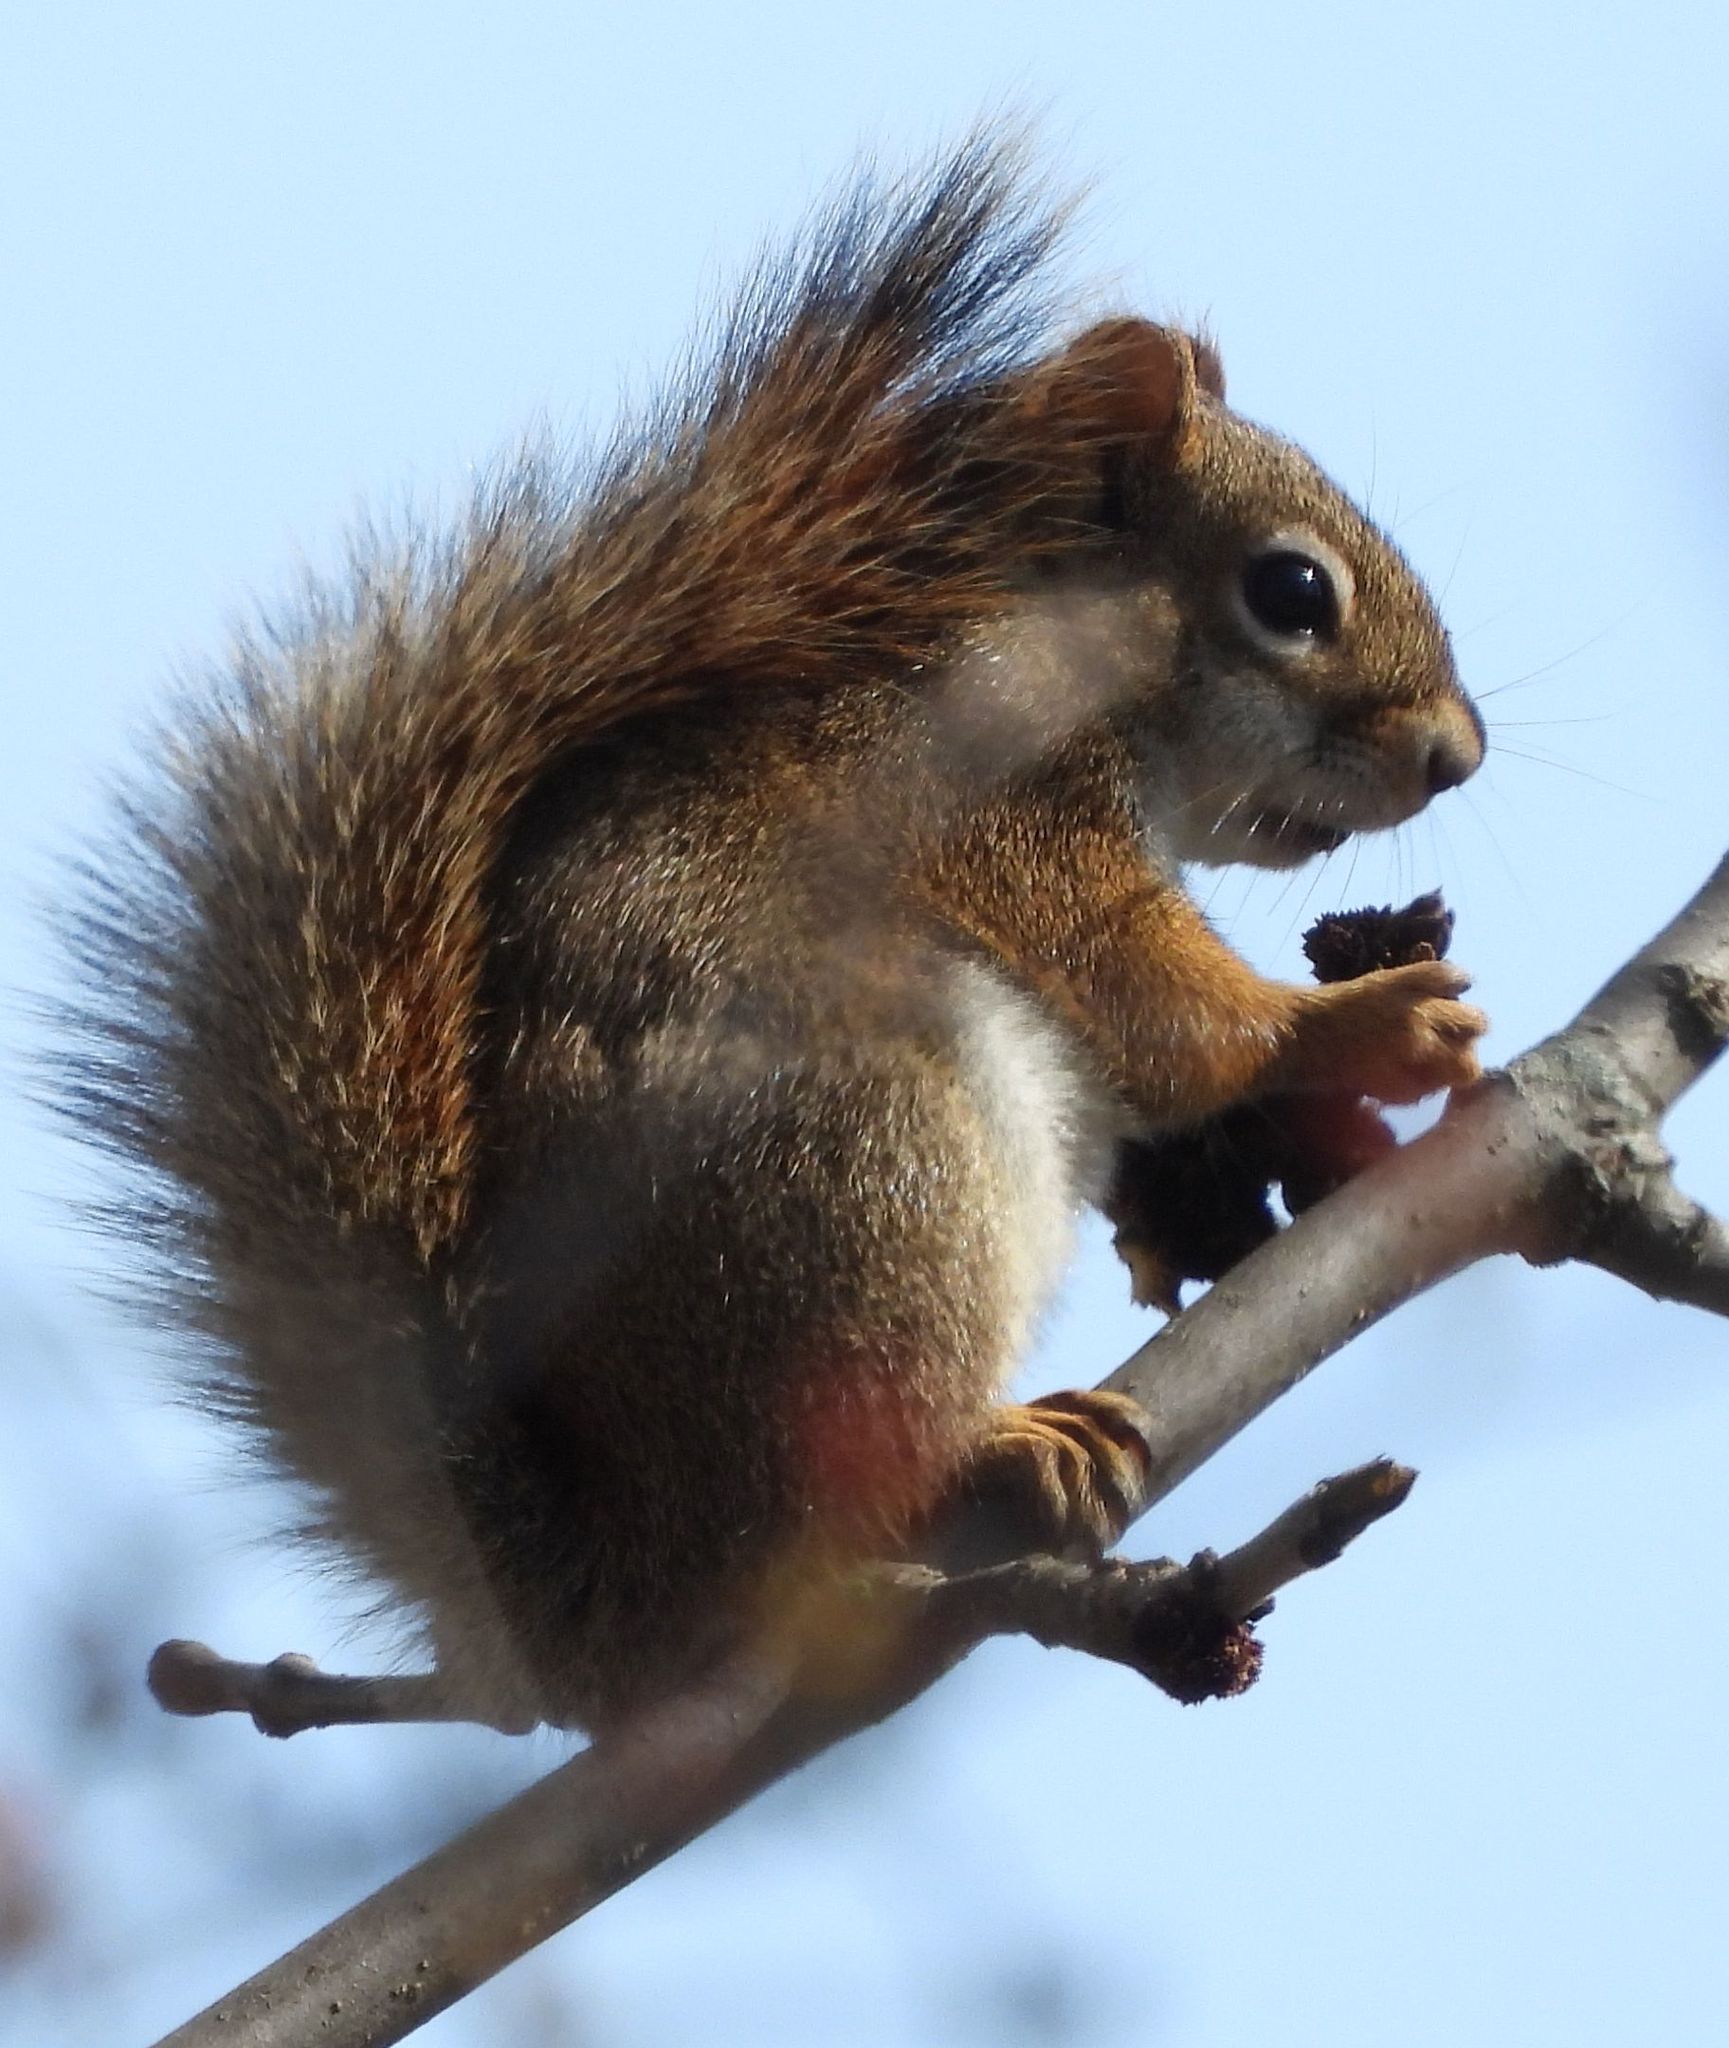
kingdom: Animalia
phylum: Chordata
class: Mammalia
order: Rodentia
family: Sciuridae
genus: Tamiasciurus
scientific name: Tamiasciurus hudsonicus
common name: Red squirrel
